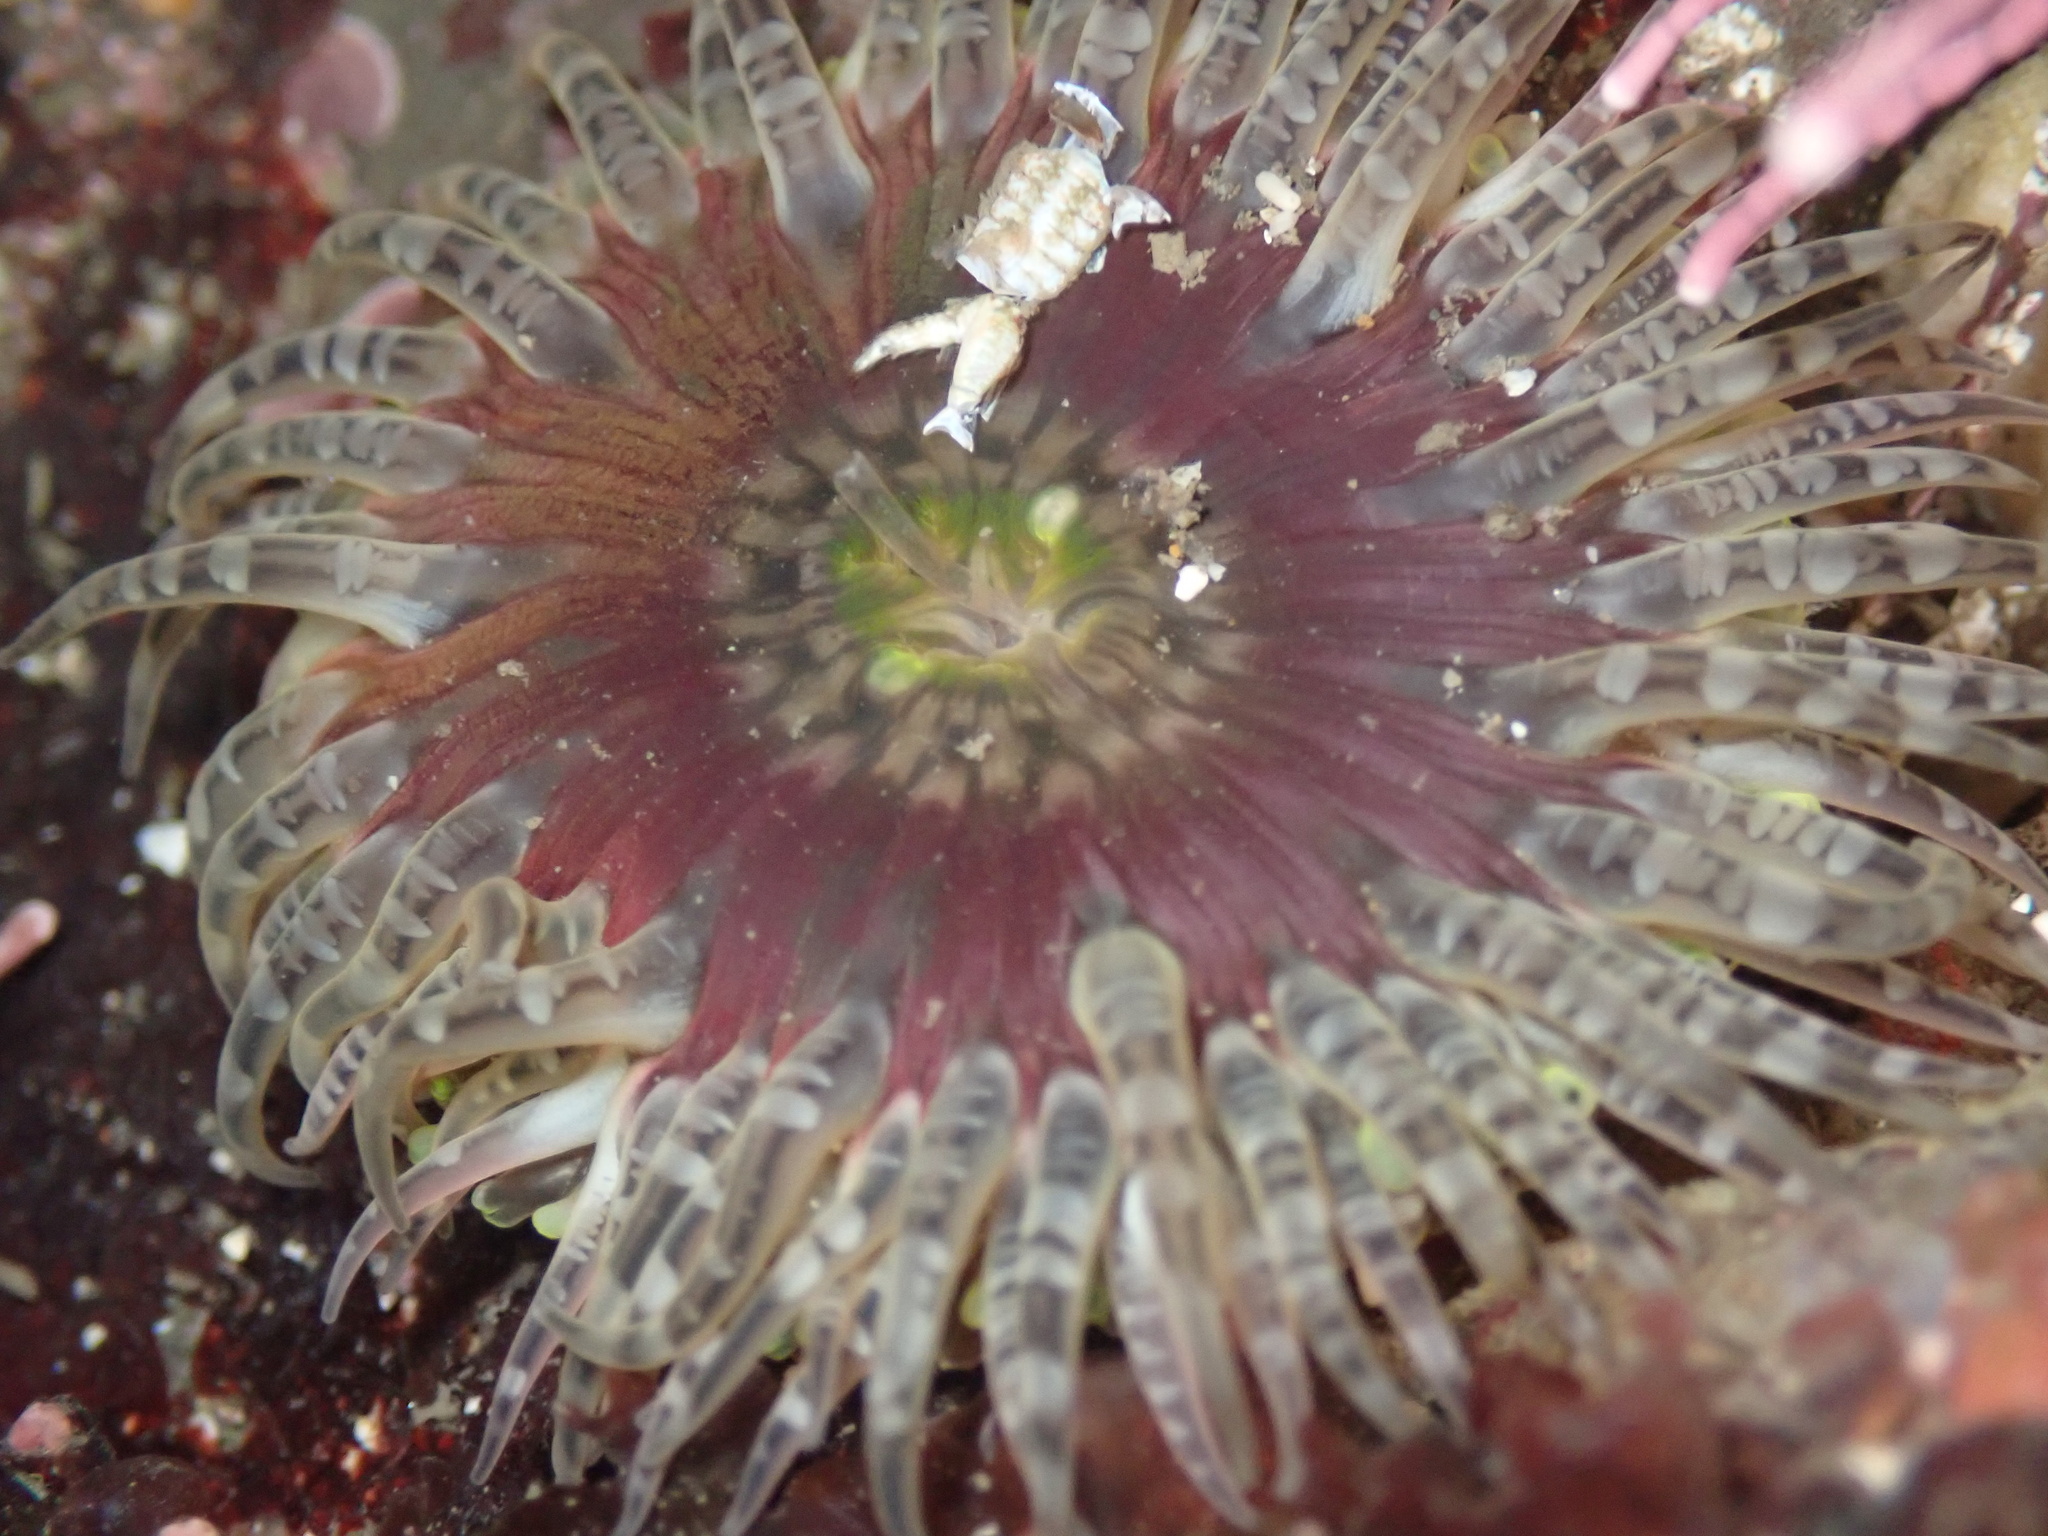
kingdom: Animalia
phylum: Cnidaria
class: Anthozoa
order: Actiniaria
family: Actiniidae
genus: Anthopleura
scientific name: Anthopleura artemisia
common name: Buried sea anemone
